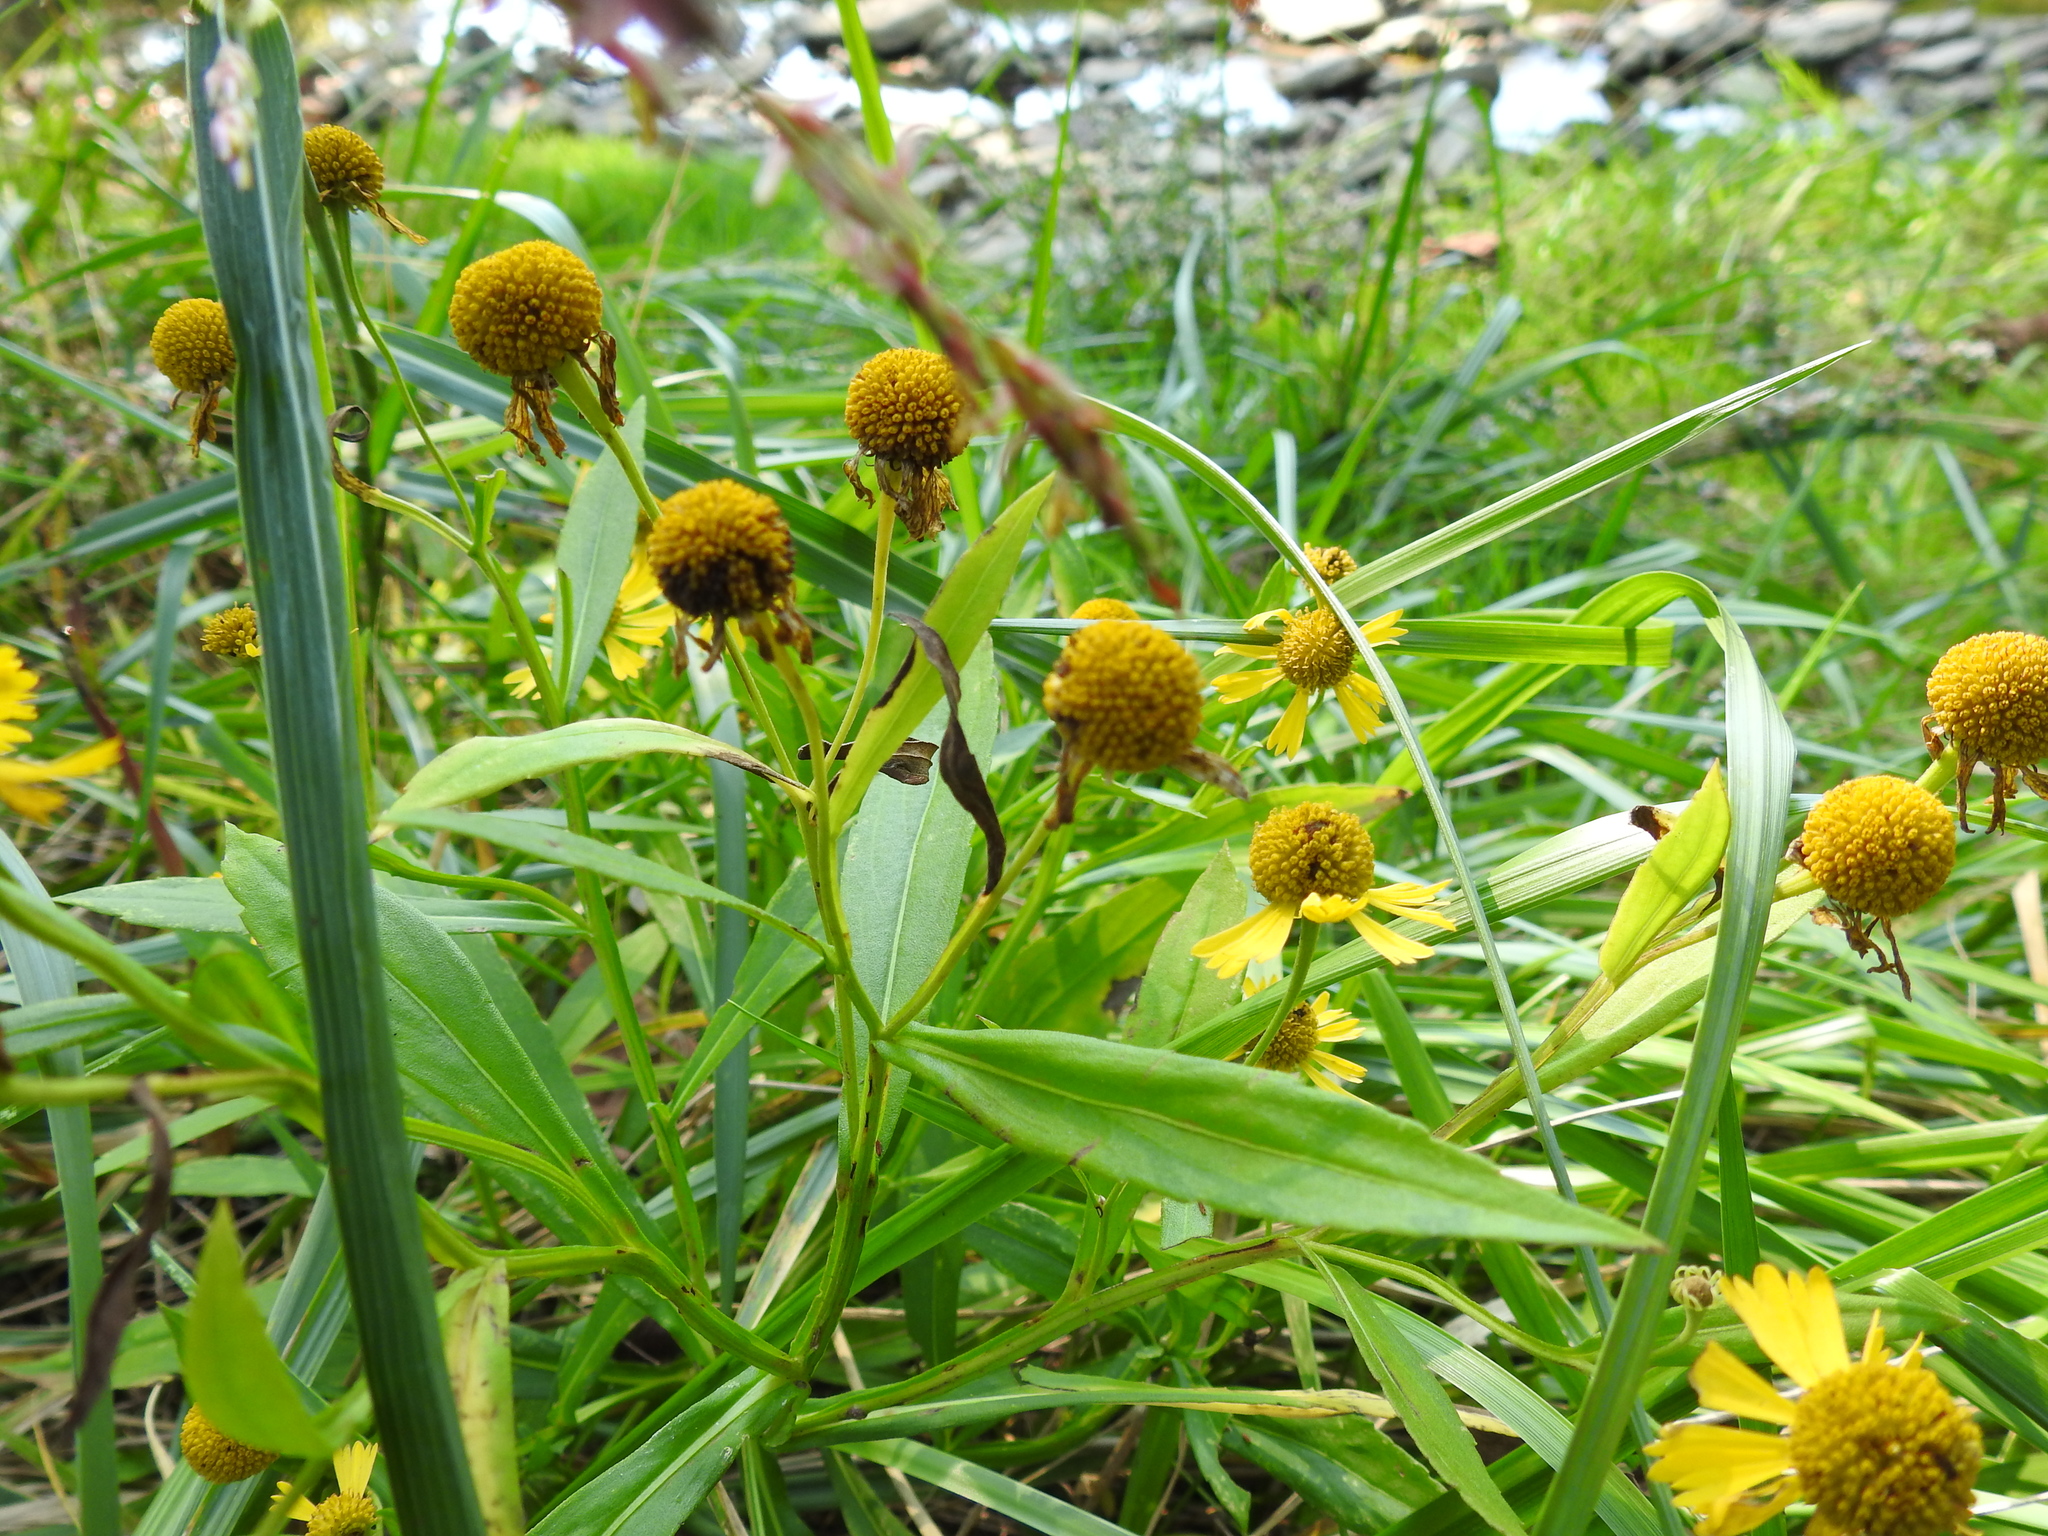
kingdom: Plantae
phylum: Tracheophyta
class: Magnoliopsida
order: Asterales
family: Asteraceae
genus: Helenium
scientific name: Helenium autumnale
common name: Sneezeweed
